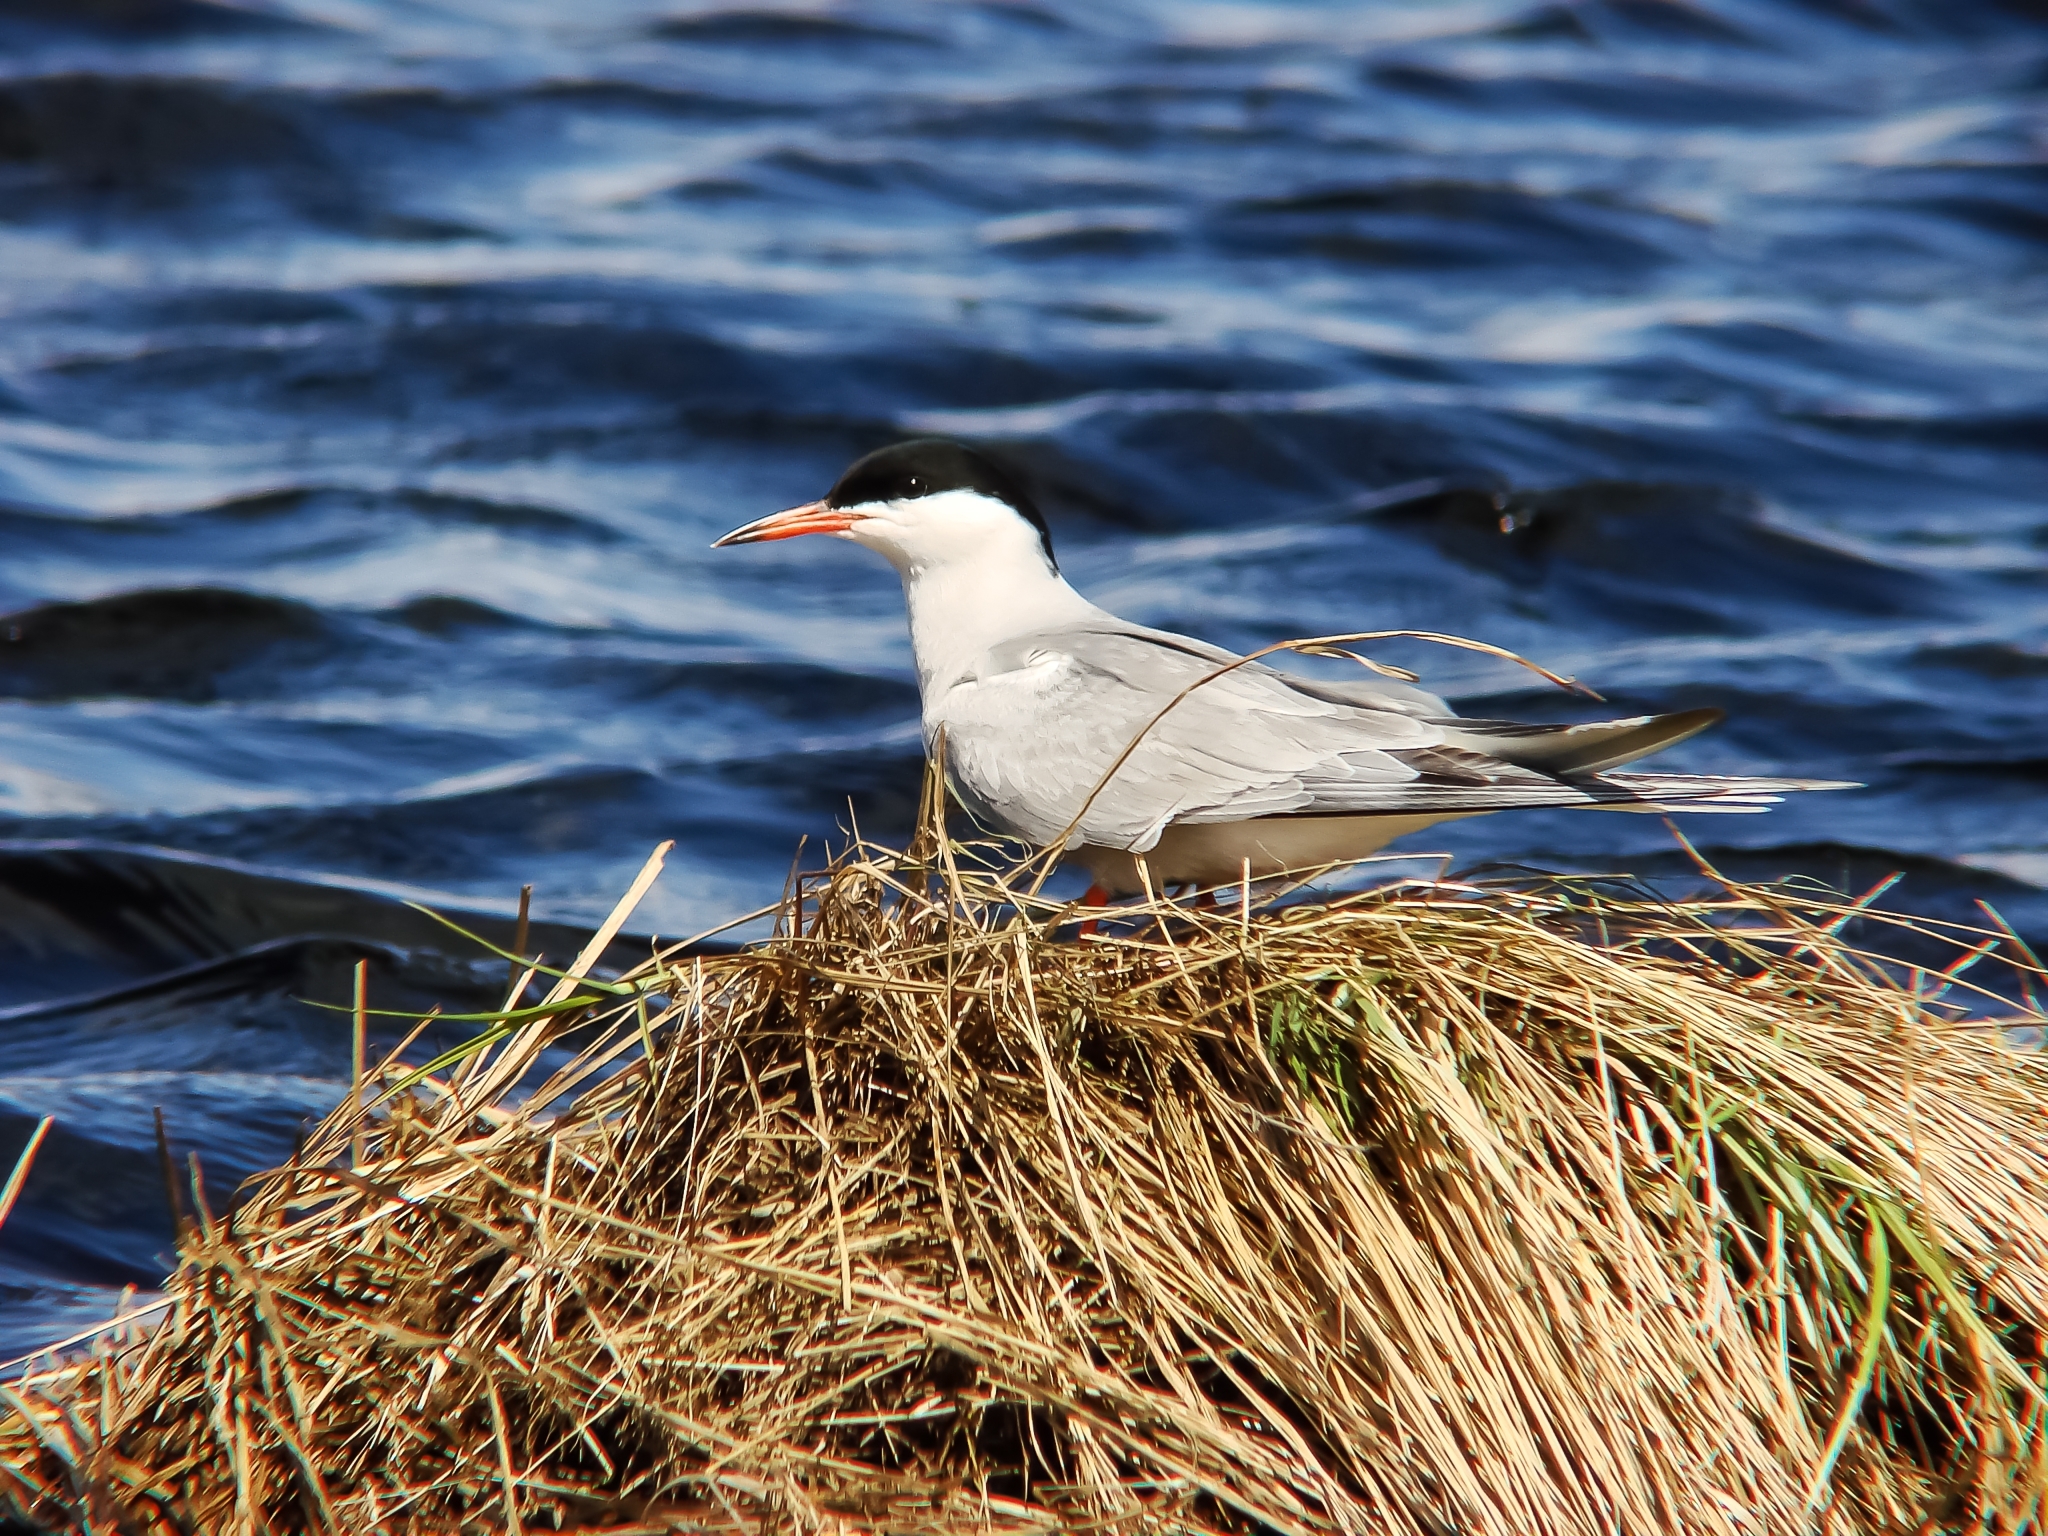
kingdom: Animalia
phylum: Chordata
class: Aves
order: Charadriiformes
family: Laridae
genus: Sterna
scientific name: Sterna hirundo
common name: Common tern
